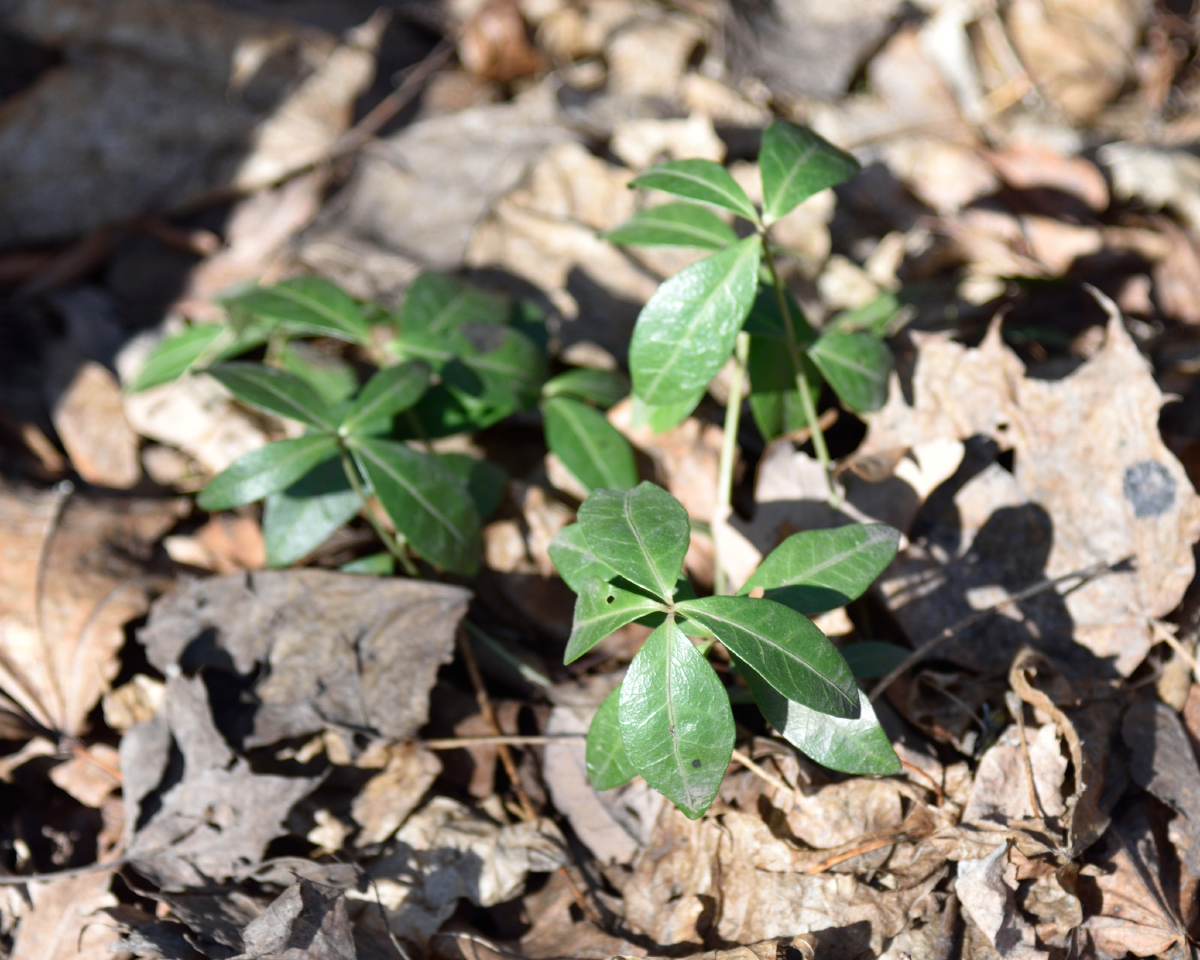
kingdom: Plantae
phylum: Tracheophyta
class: Magnoliopsida
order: Gentianales
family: Apocynaceae
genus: Vinca
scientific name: Vinca minor
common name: Lesser periwinkle
